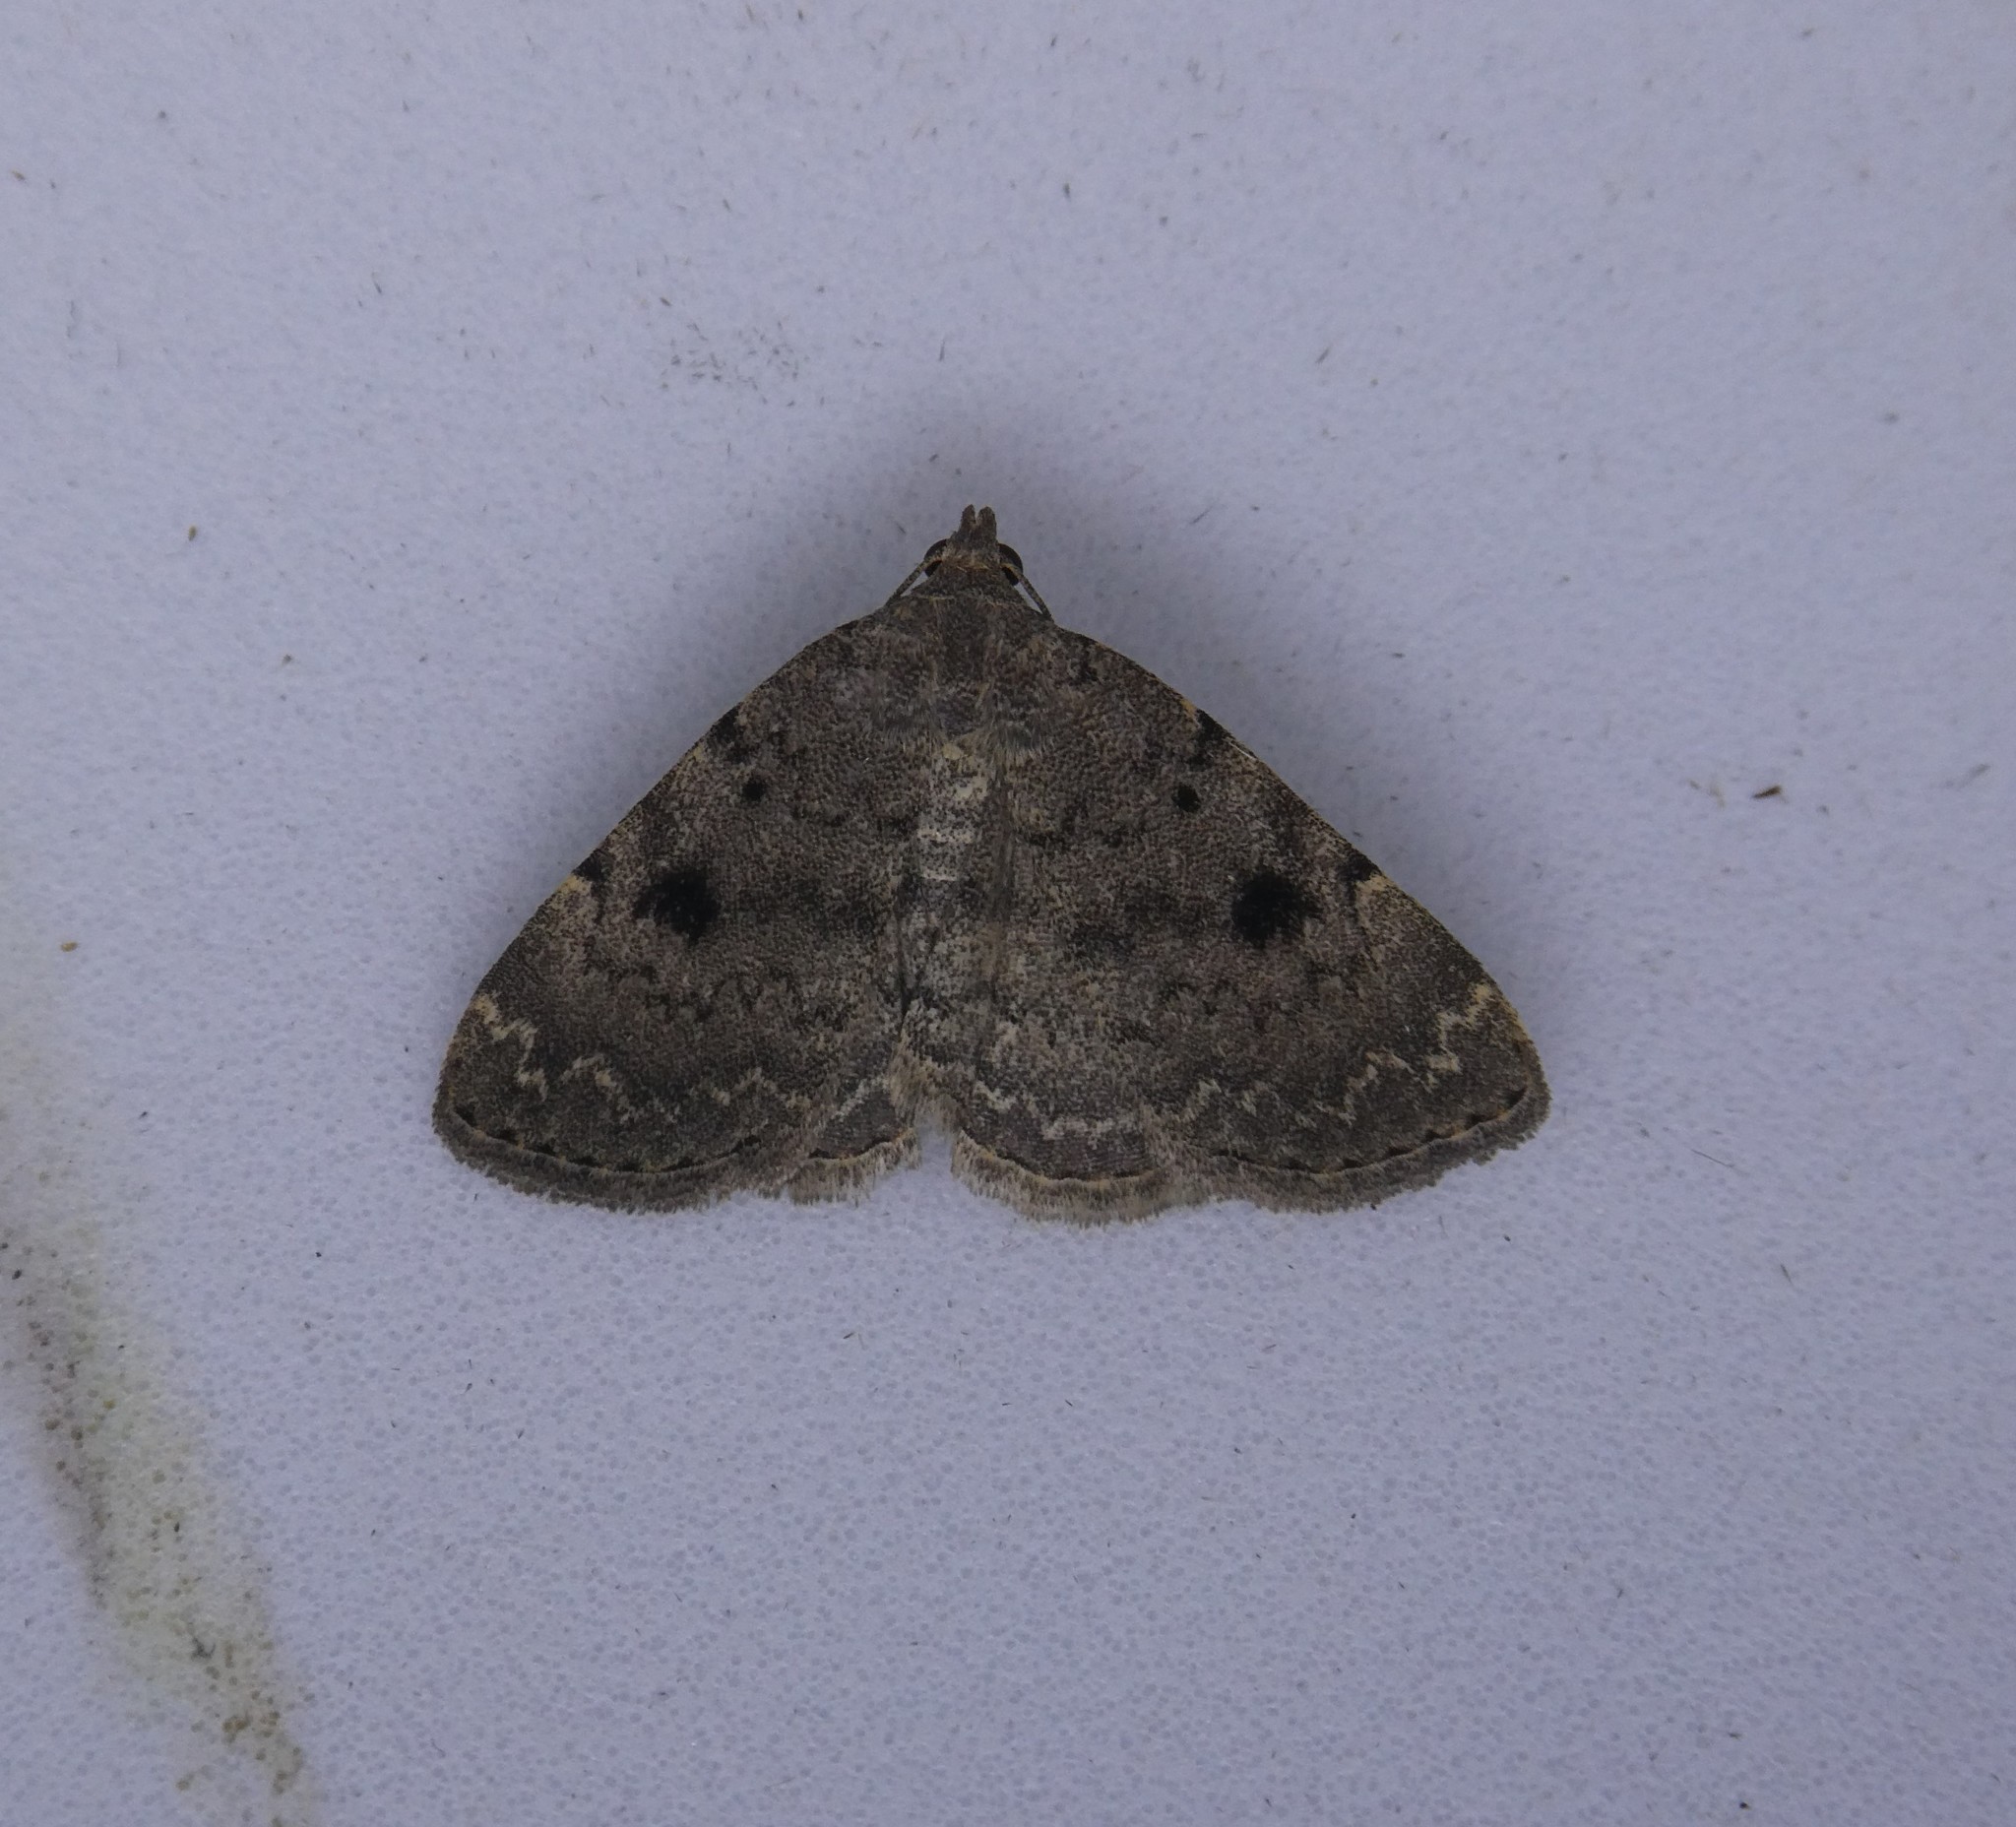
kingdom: Animalia
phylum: Arthropoda
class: Insecta
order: Lepidoptera
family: Erebidae
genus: Idia
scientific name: Idia aemula
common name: Common idia moth
